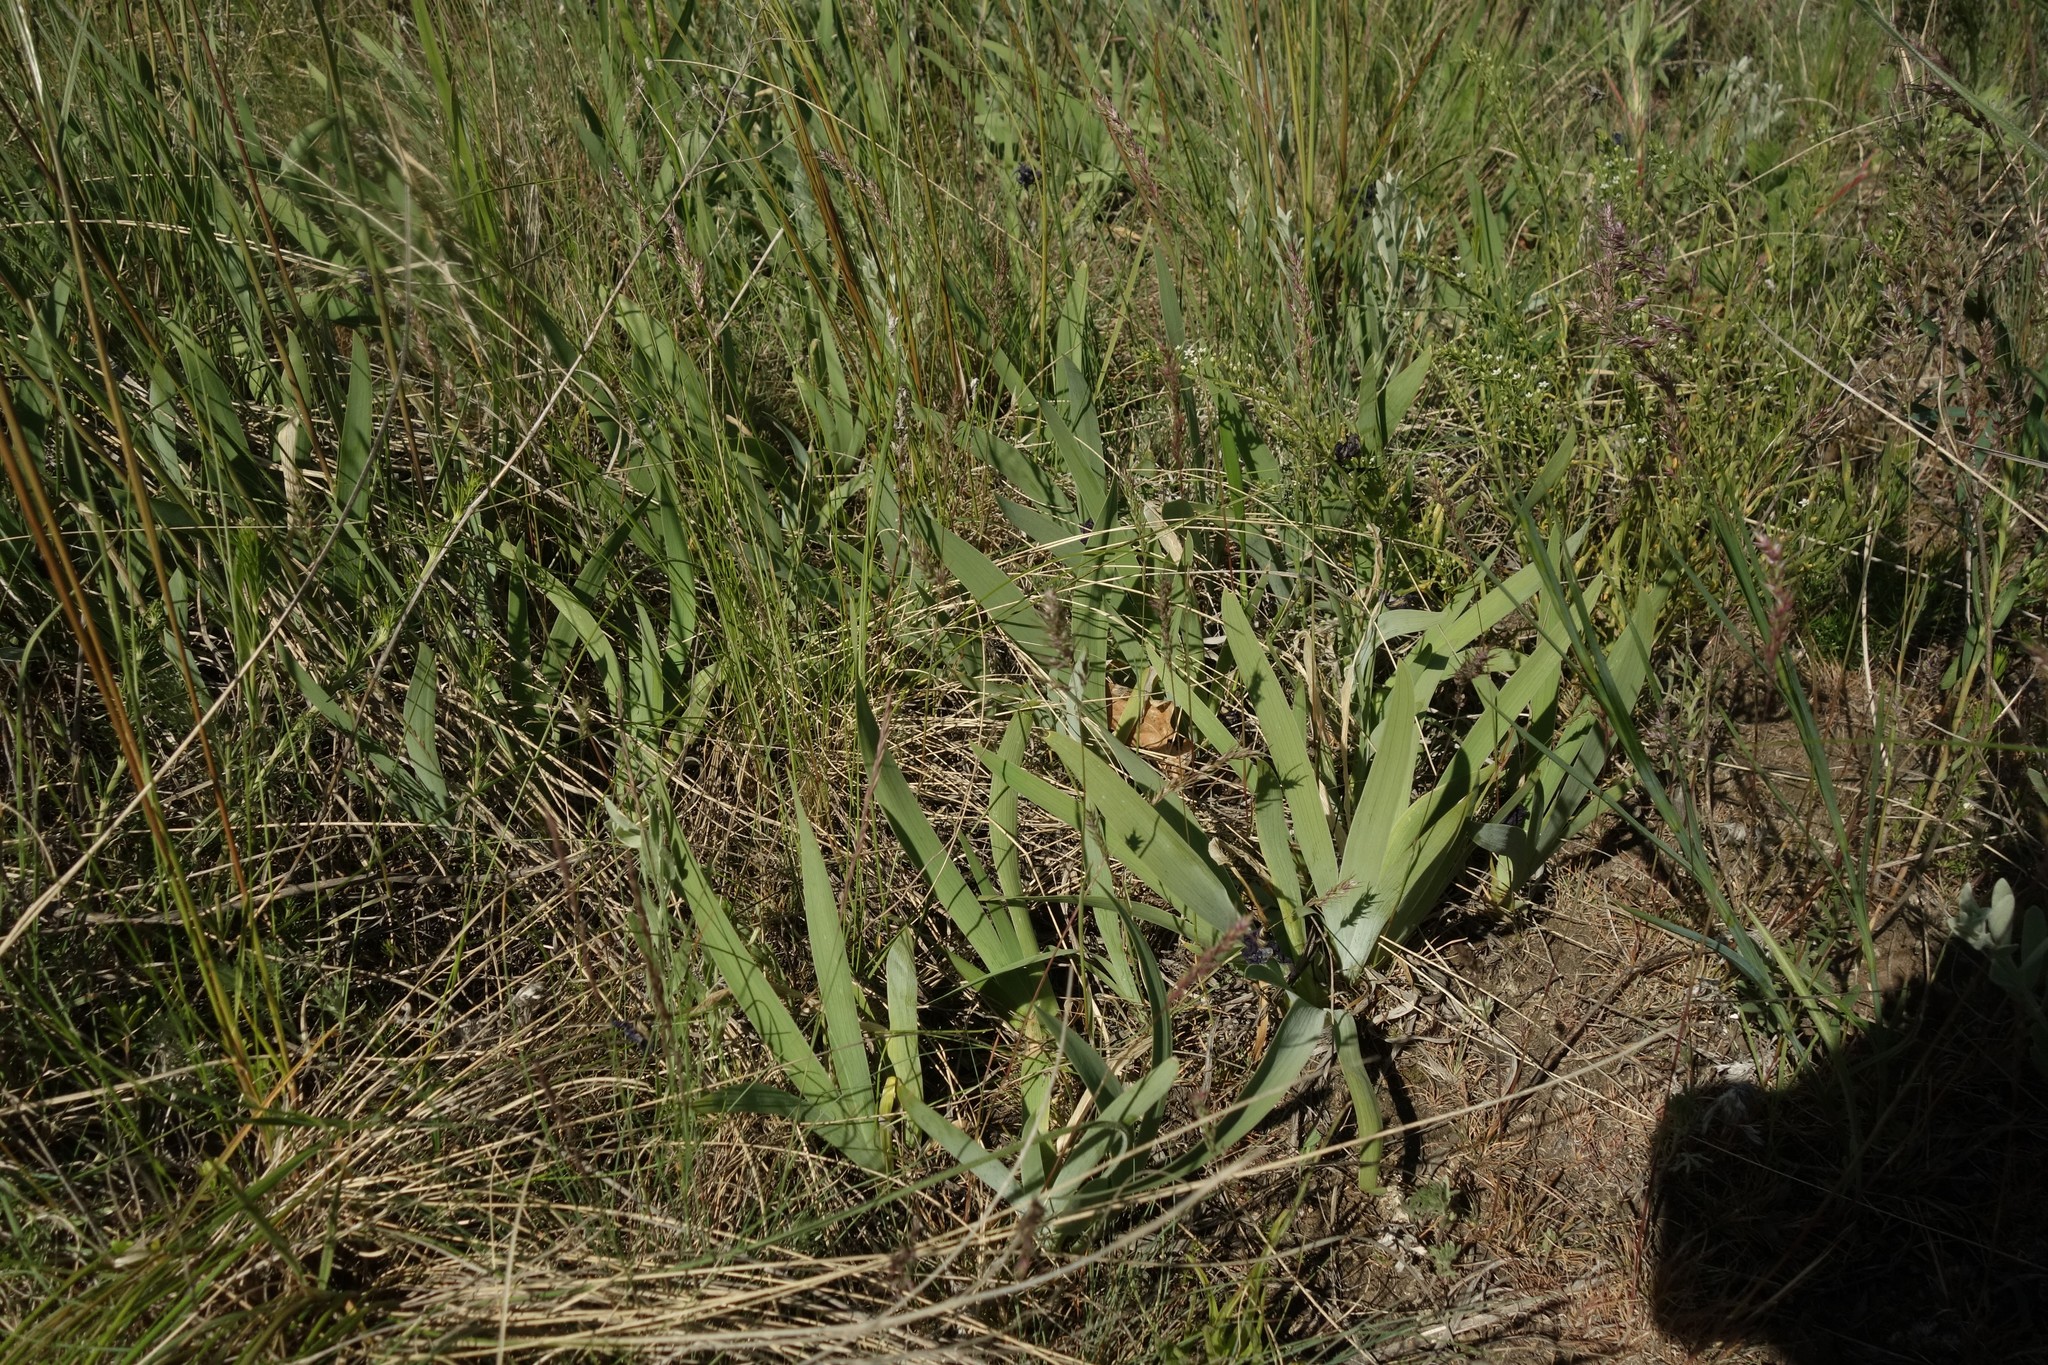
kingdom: Plantae
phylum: Tracheophyta
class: Liliopsida
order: Asparagales
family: Iridaceae
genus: Iris
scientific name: Iris pumila
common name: Dwarf iris
